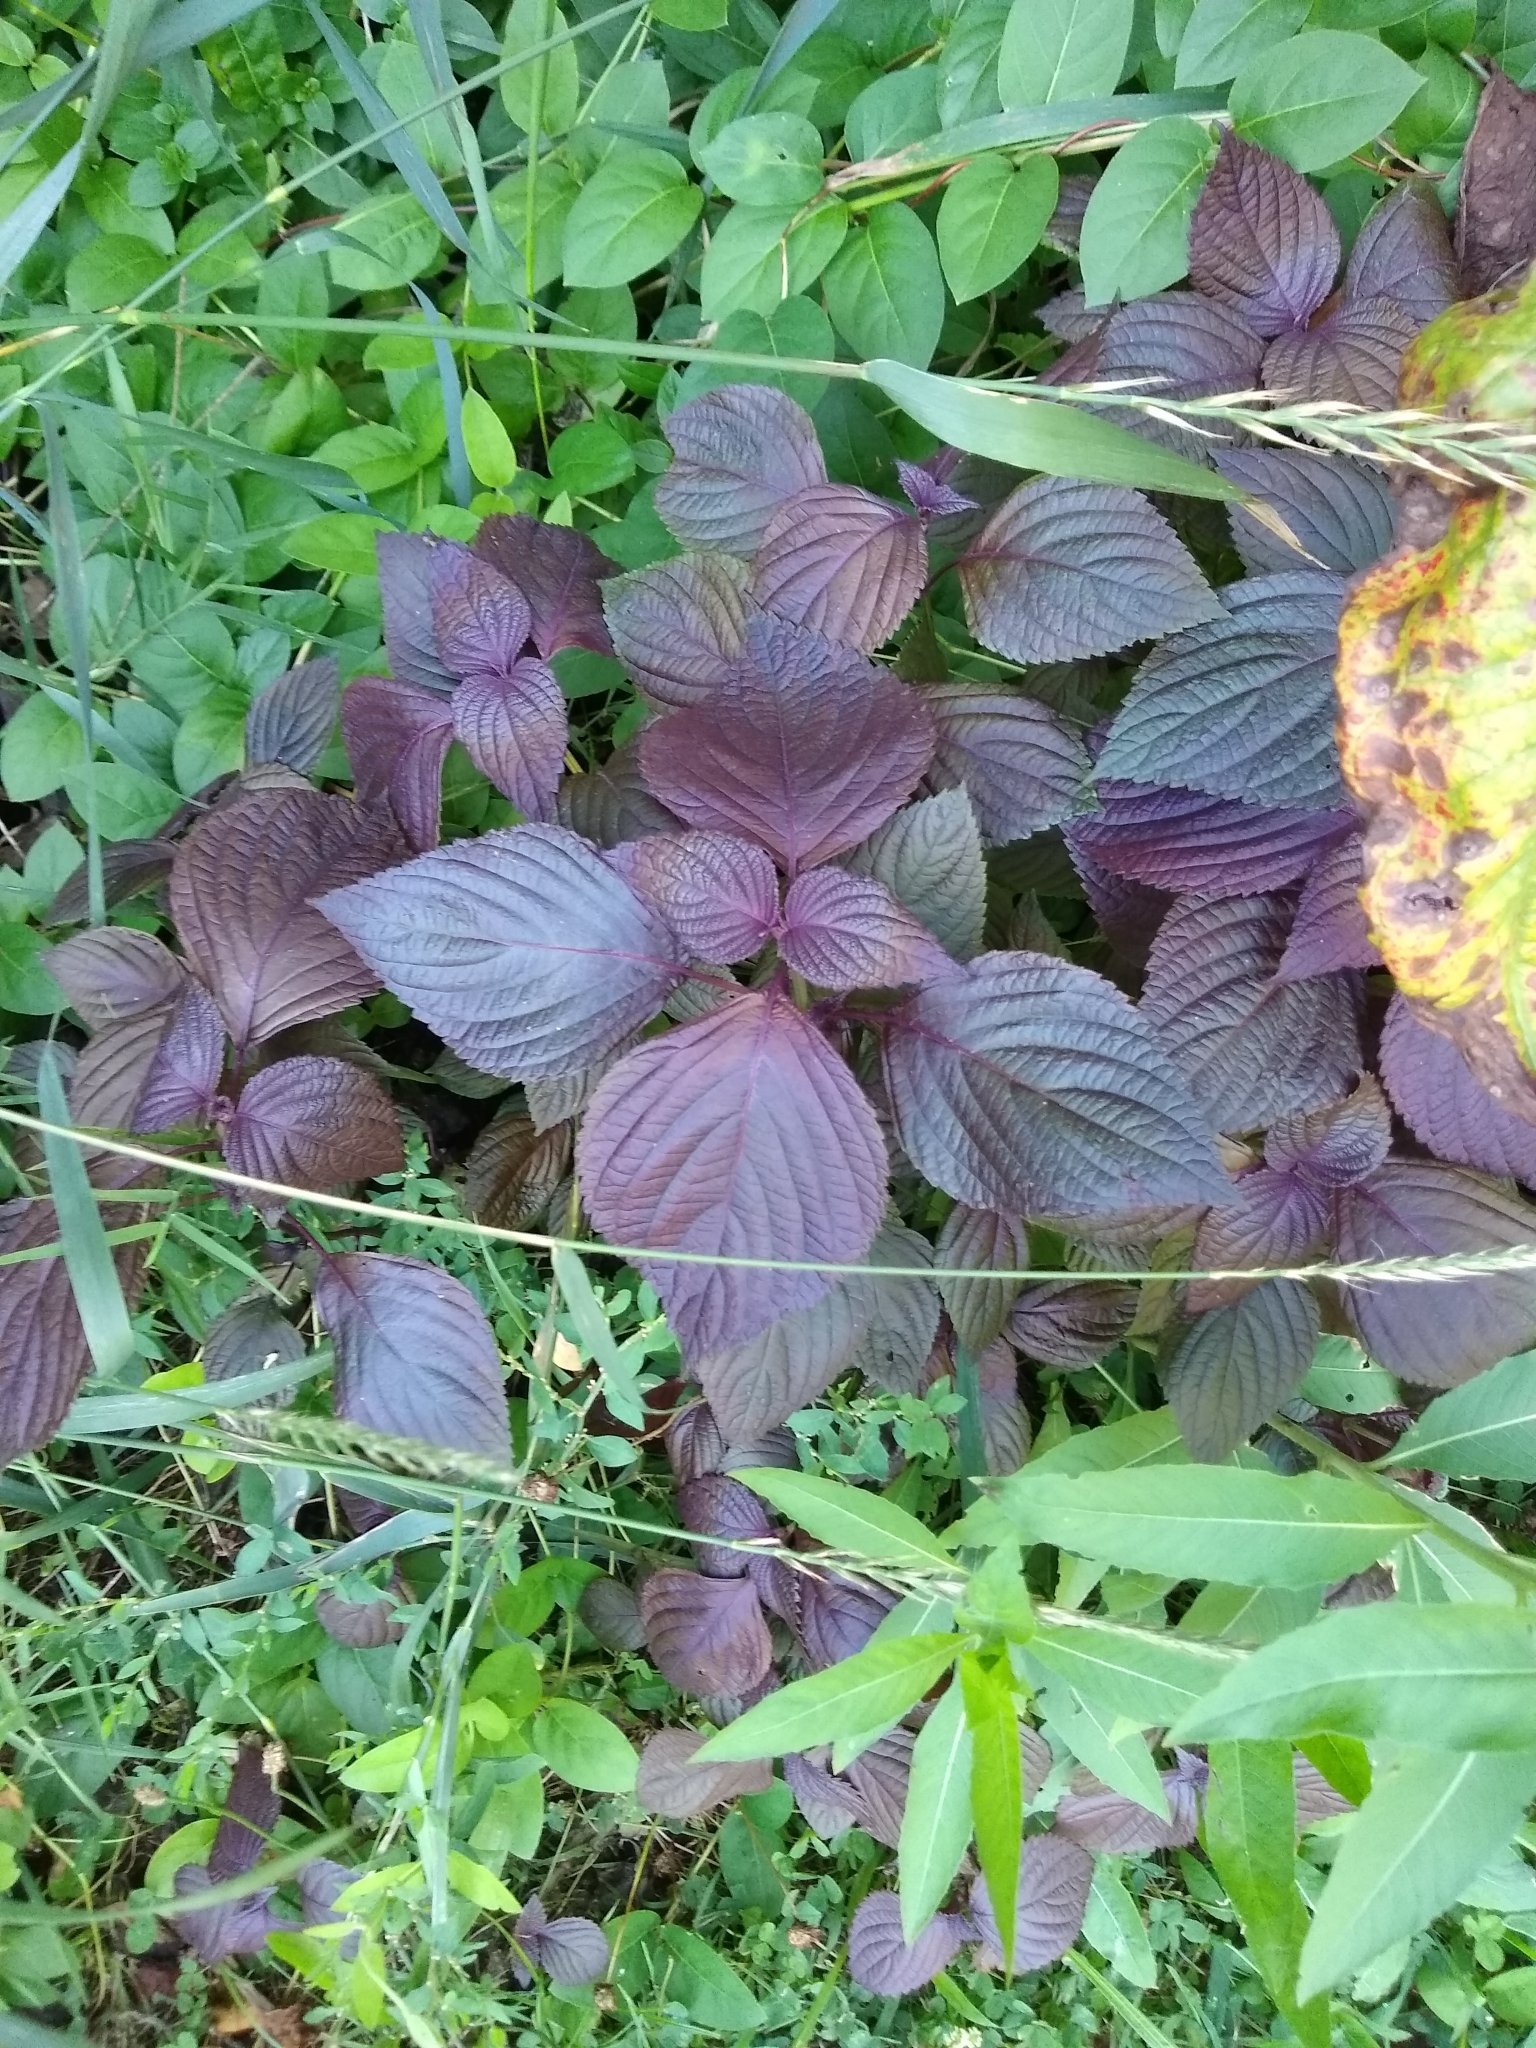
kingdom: Plantae
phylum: Tracheophyta
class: Magnoliopsida
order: Lamiales
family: Lamiaceae
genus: Perilla
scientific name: Perilla frutescens
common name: Perilla
